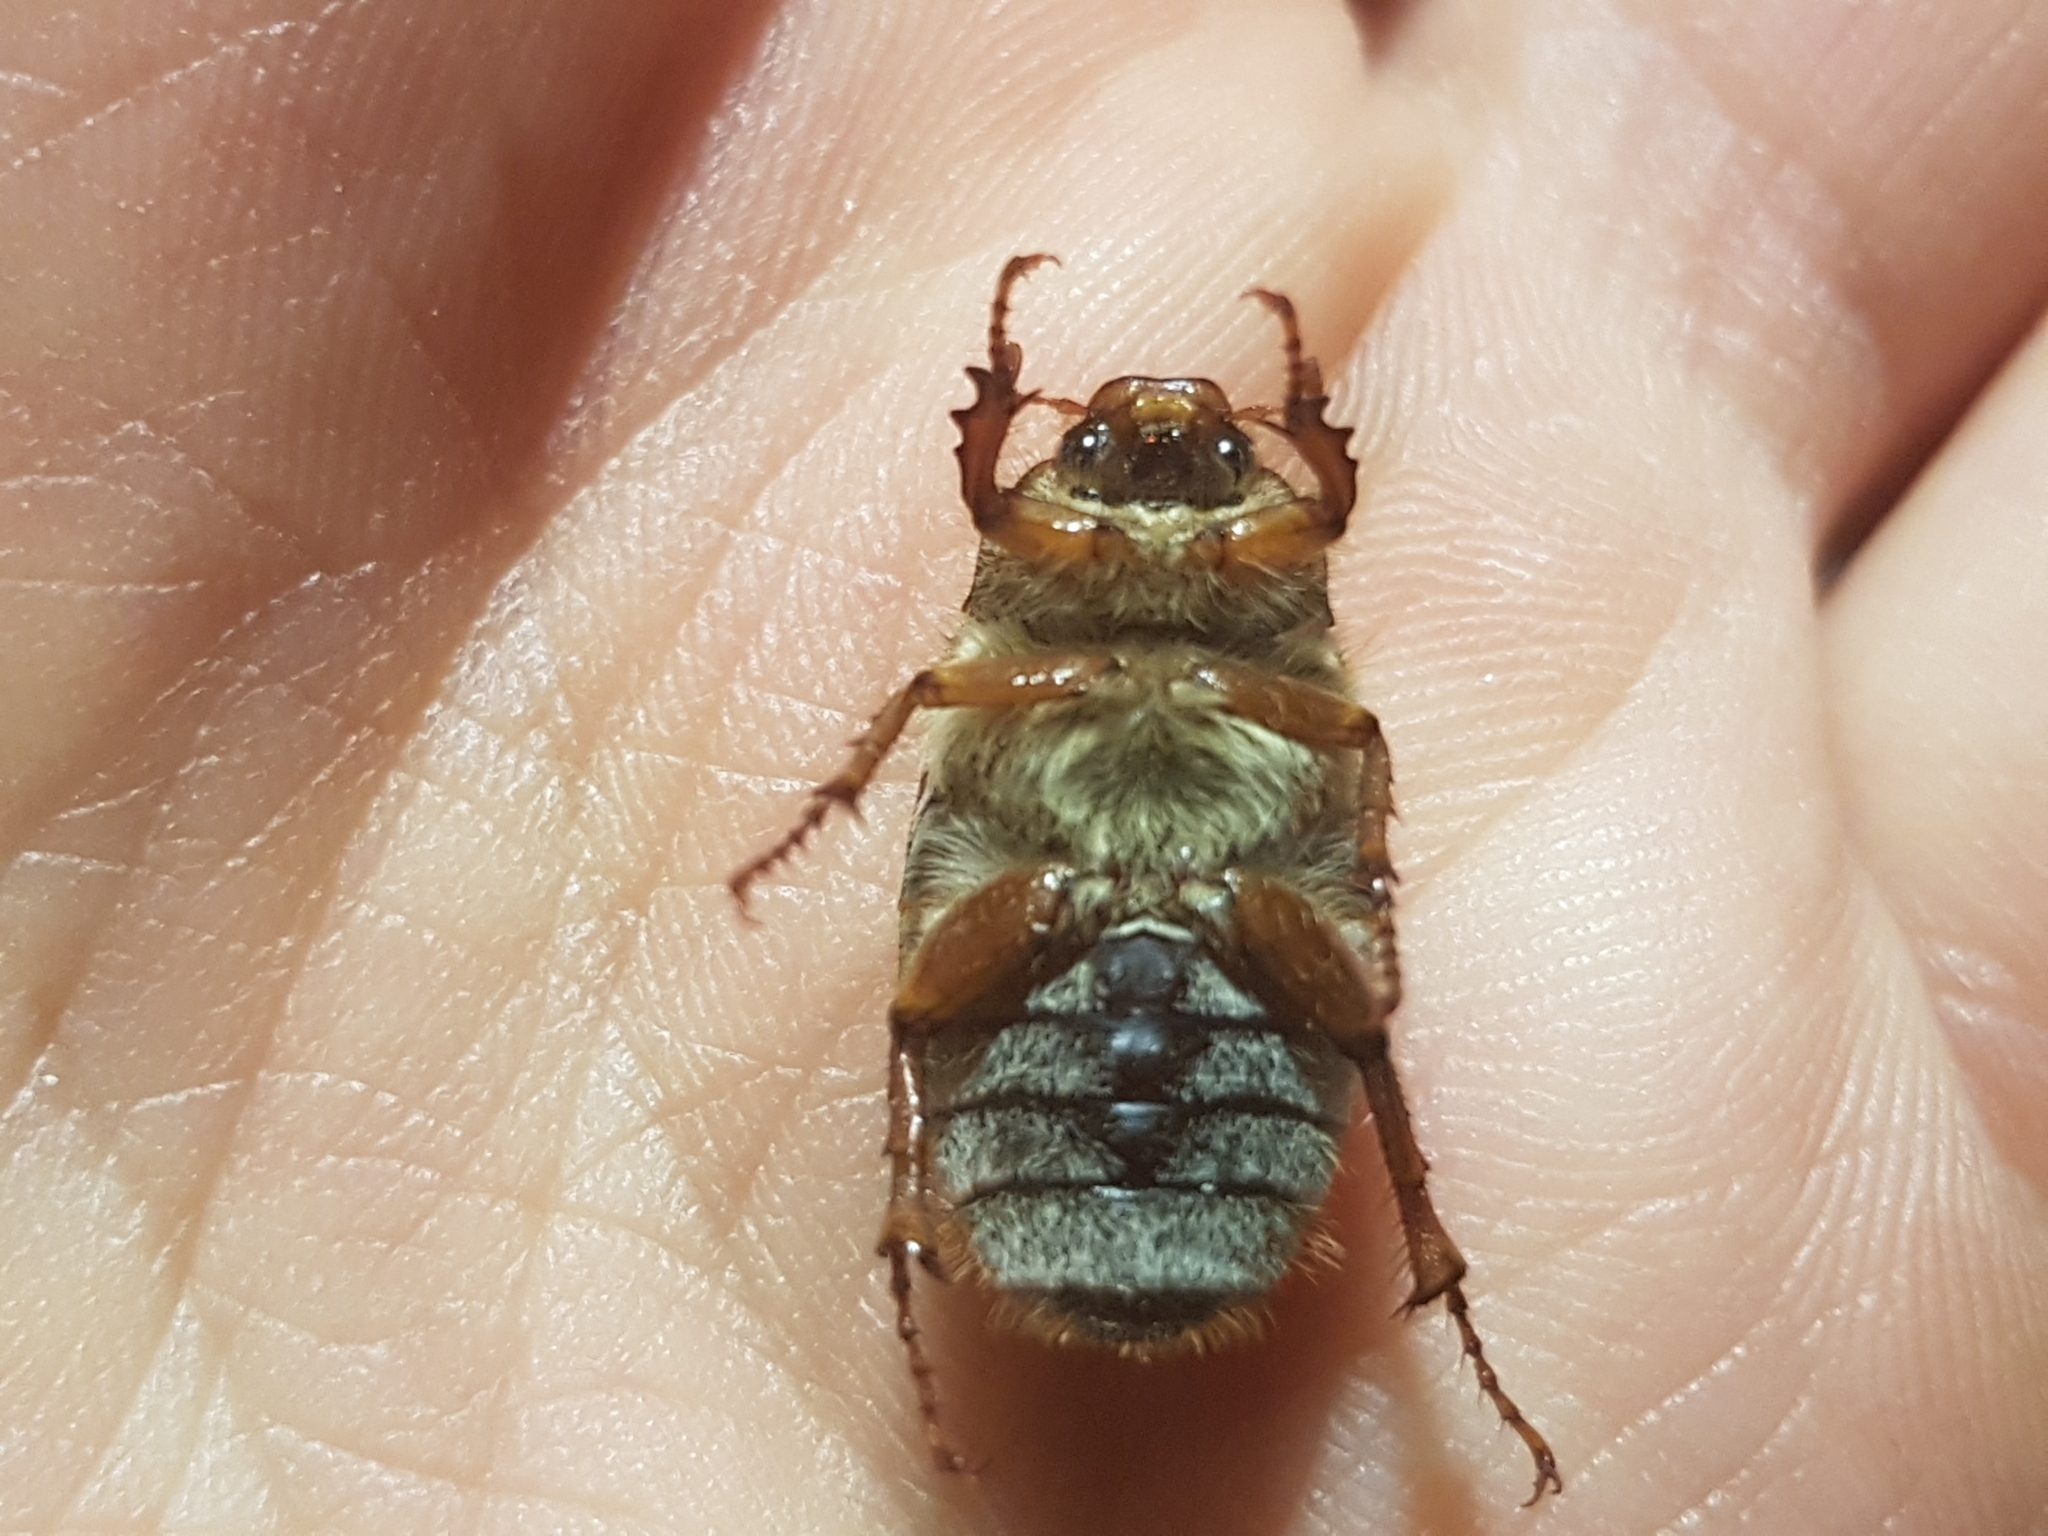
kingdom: Animalia
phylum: Arthropoda
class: Insecta
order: Coleoptera
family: Scarabaeidae
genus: Amphimallon
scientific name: Amphimallon solstitiale
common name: Summer chafer
